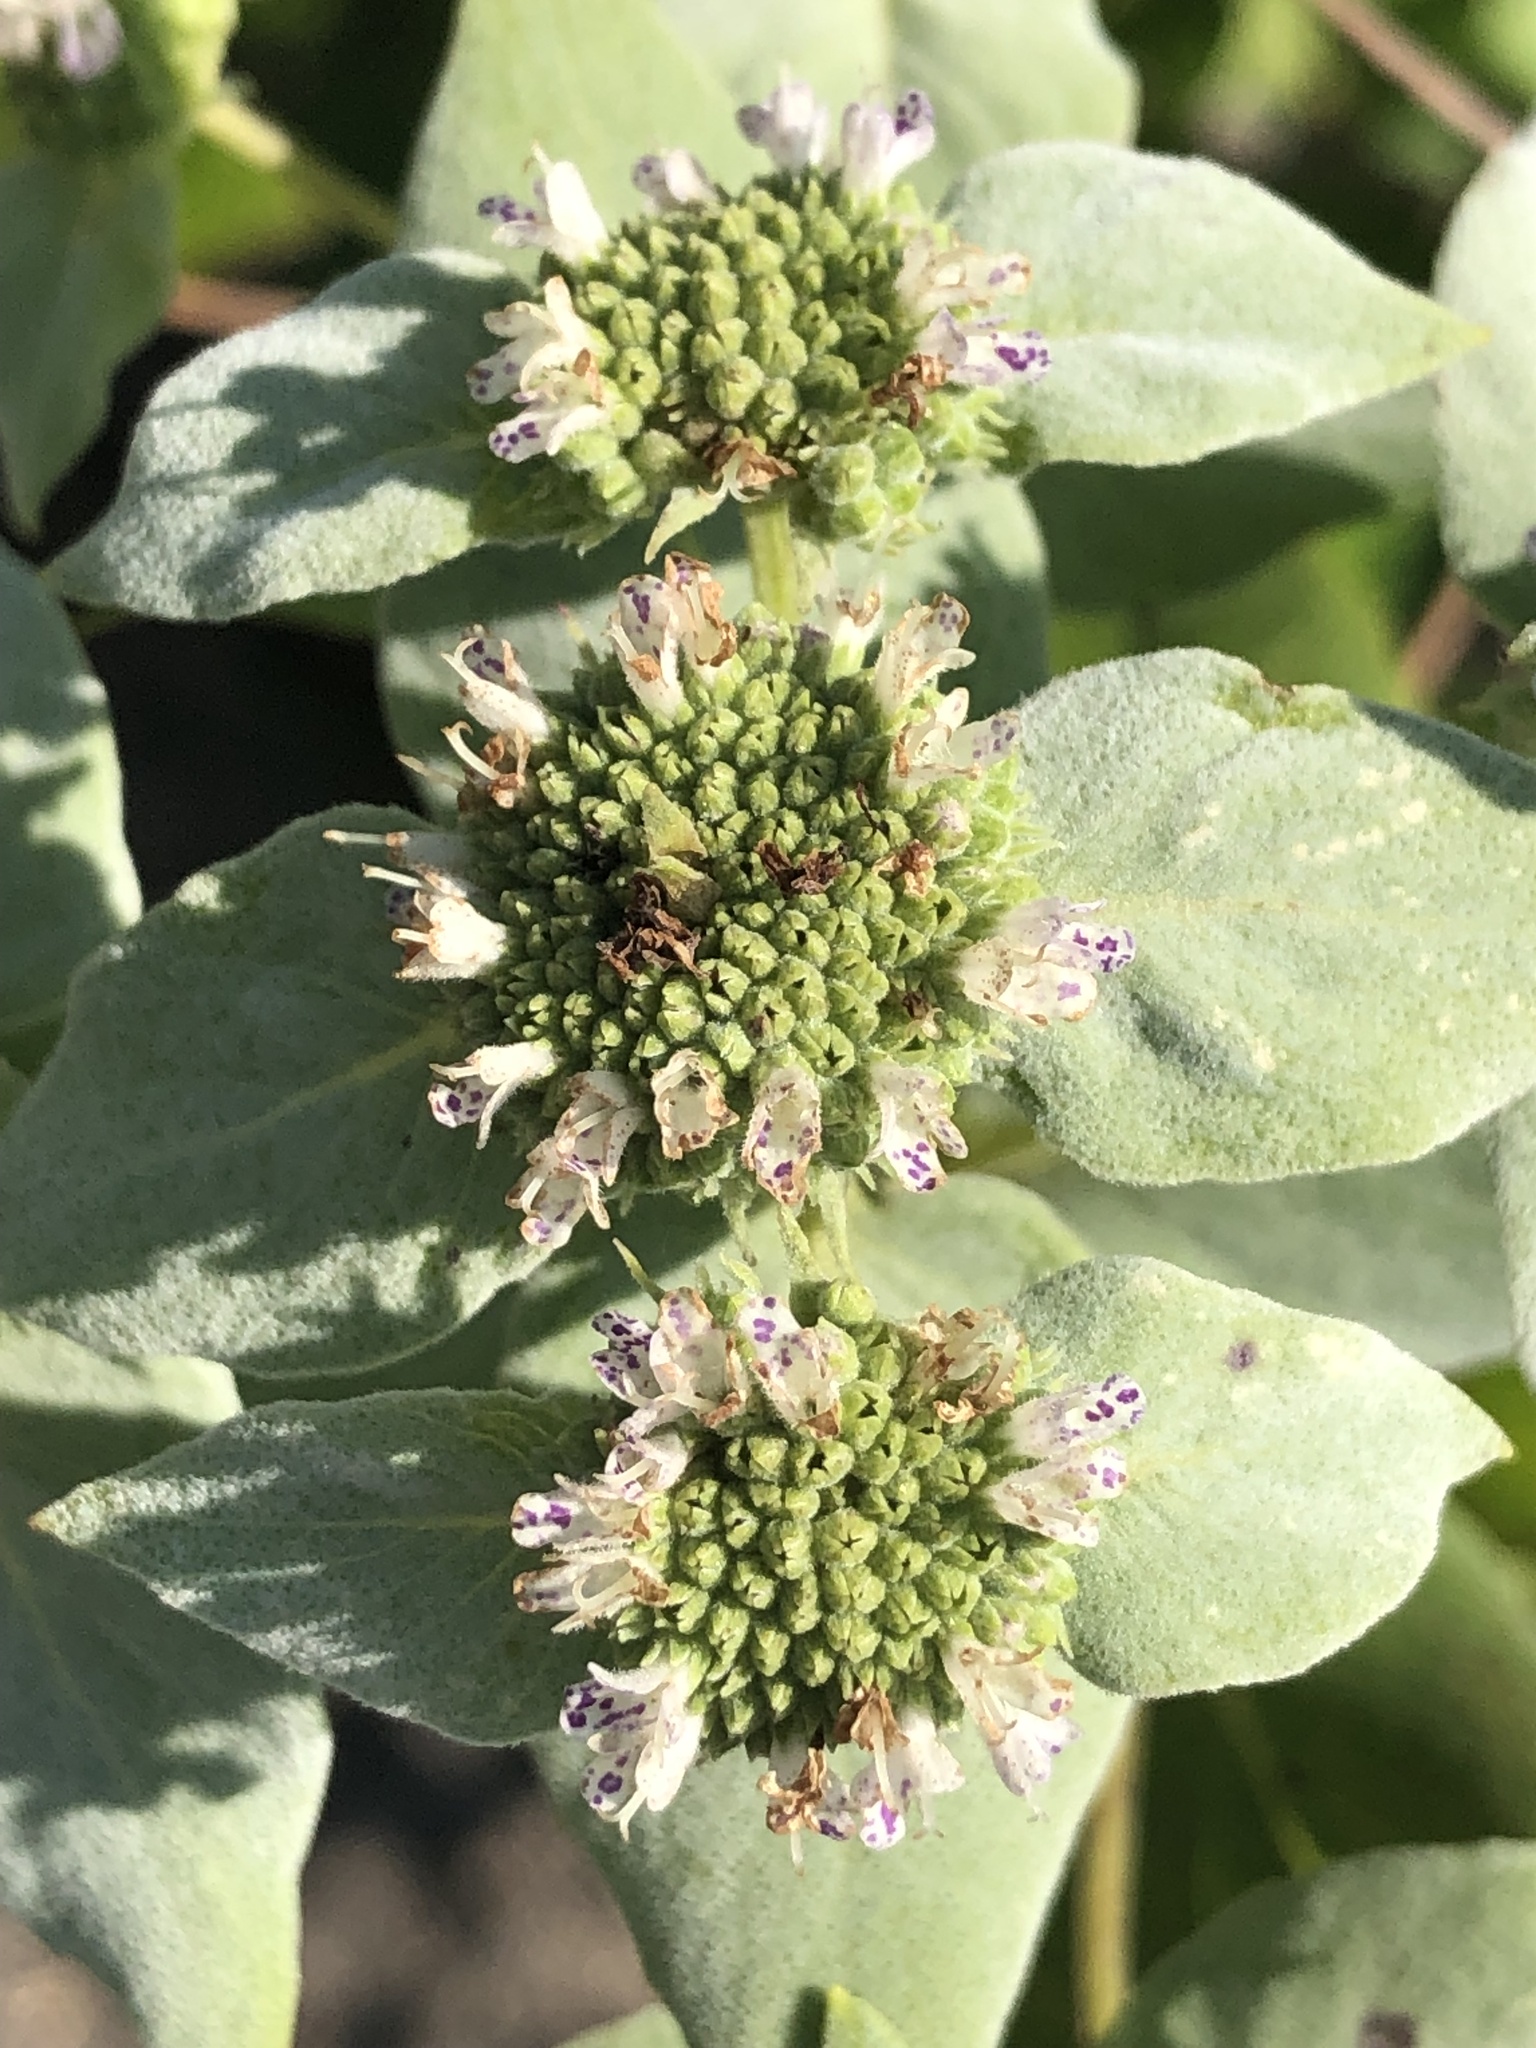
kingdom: Plantae
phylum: Tracheophyta
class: Magnoliopsida
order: Lamiales
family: Lamiaceae
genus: Pycnanthemum
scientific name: Pycnanthemum muticum
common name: Blunt mountain-mint
